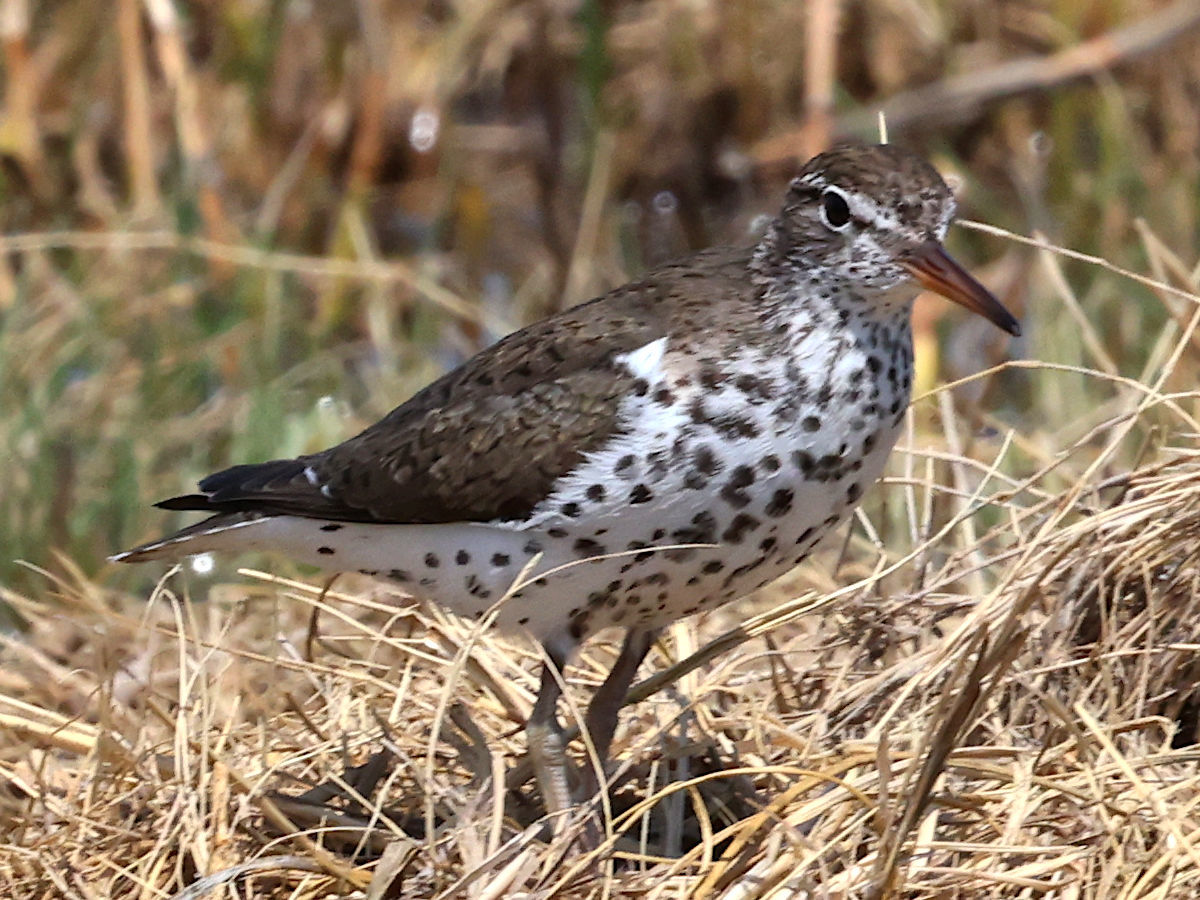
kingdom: Animalia
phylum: Chordata
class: Aves
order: Charadriiformes
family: Scolopacidae
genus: Actitis
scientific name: Actitis macularius
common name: Spotted sandpiper
